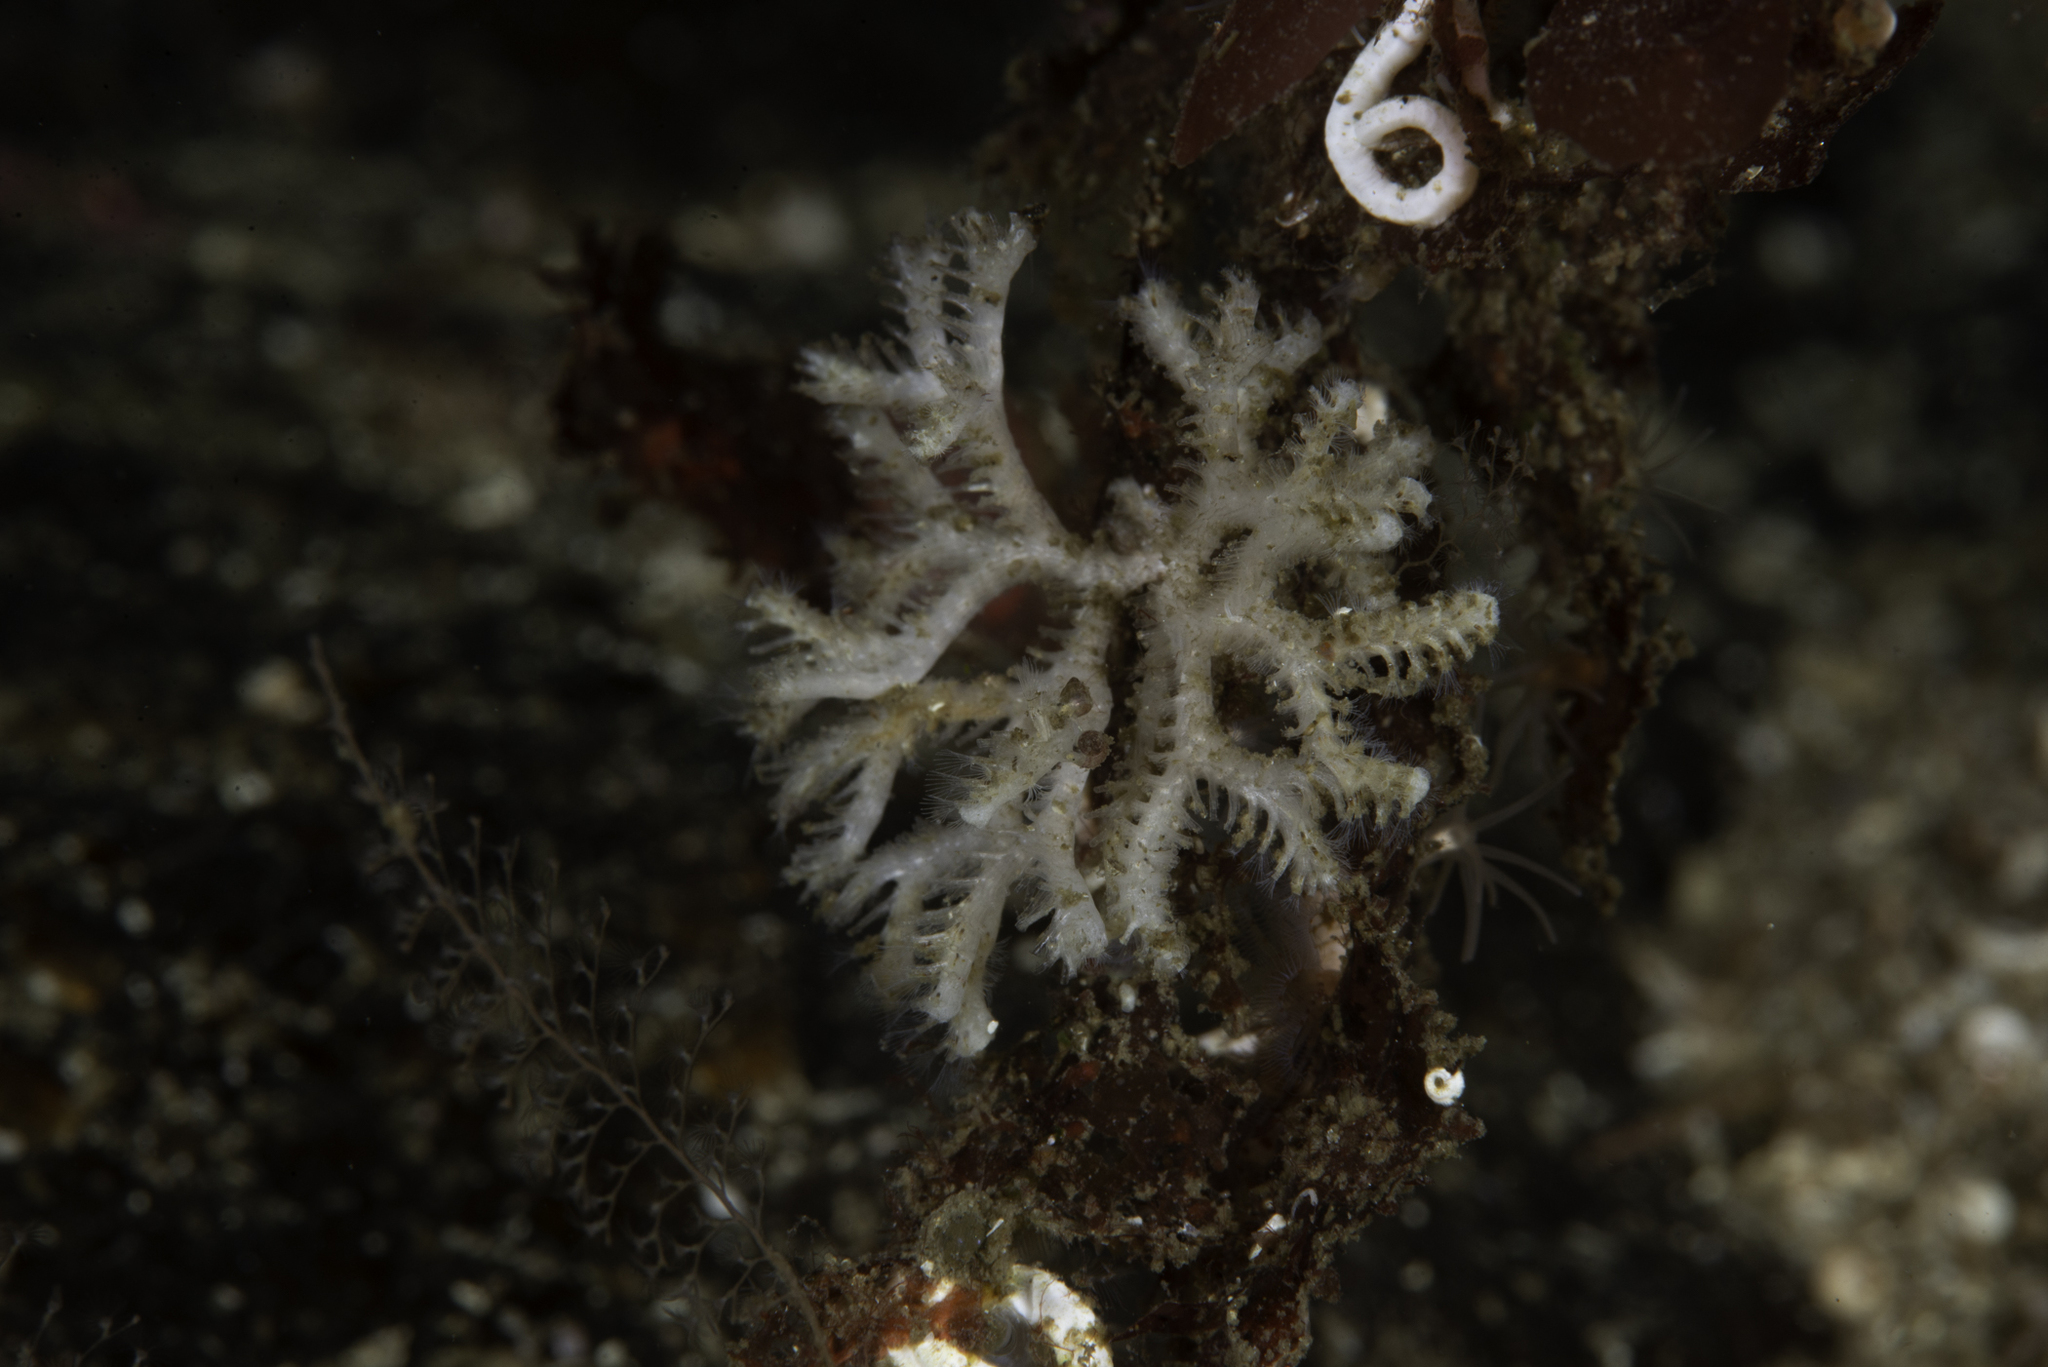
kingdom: Animalia
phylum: Bryozoa
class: Stenolaemata
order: Cyclostomatida
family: Tubuliporidae
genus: Exidmonea
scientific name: Exidmonea atlantica
